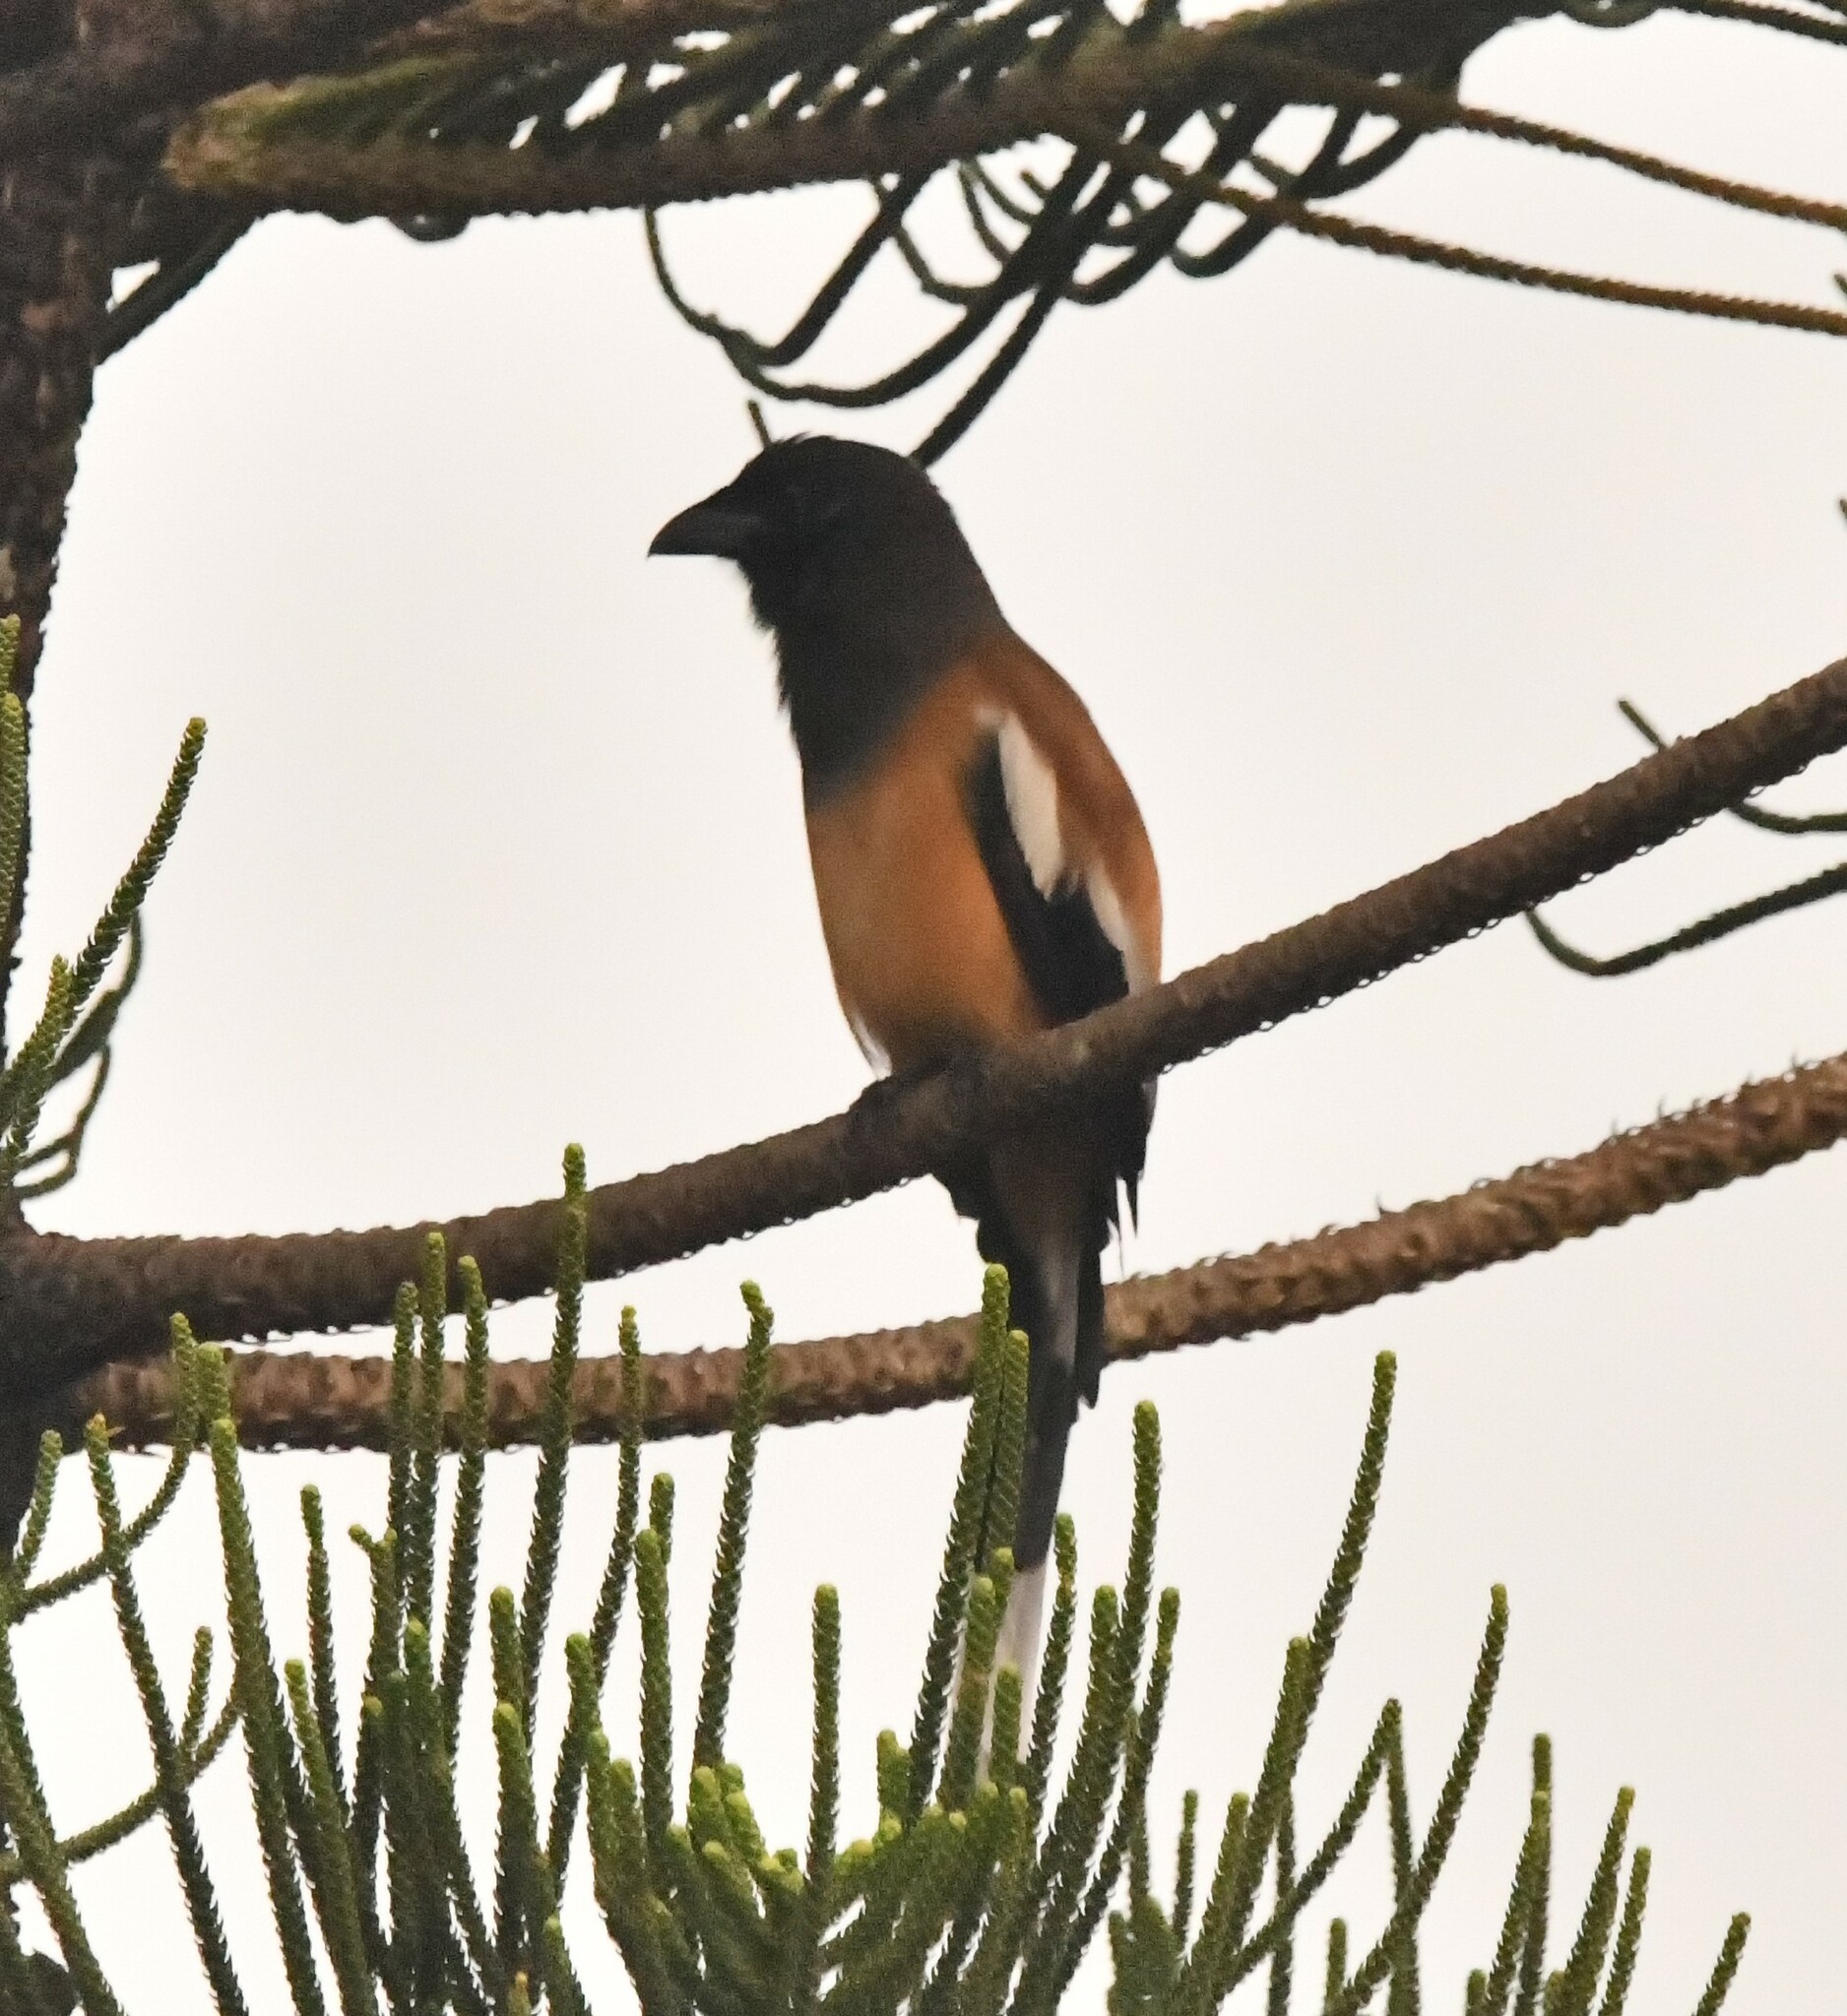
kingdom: Animalia
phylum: Chordata
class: Aves
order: Passeriformes
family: Corvidae
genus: Dendrocitta
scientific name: Dendrocitta vagabunda
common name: Rufous treepie
